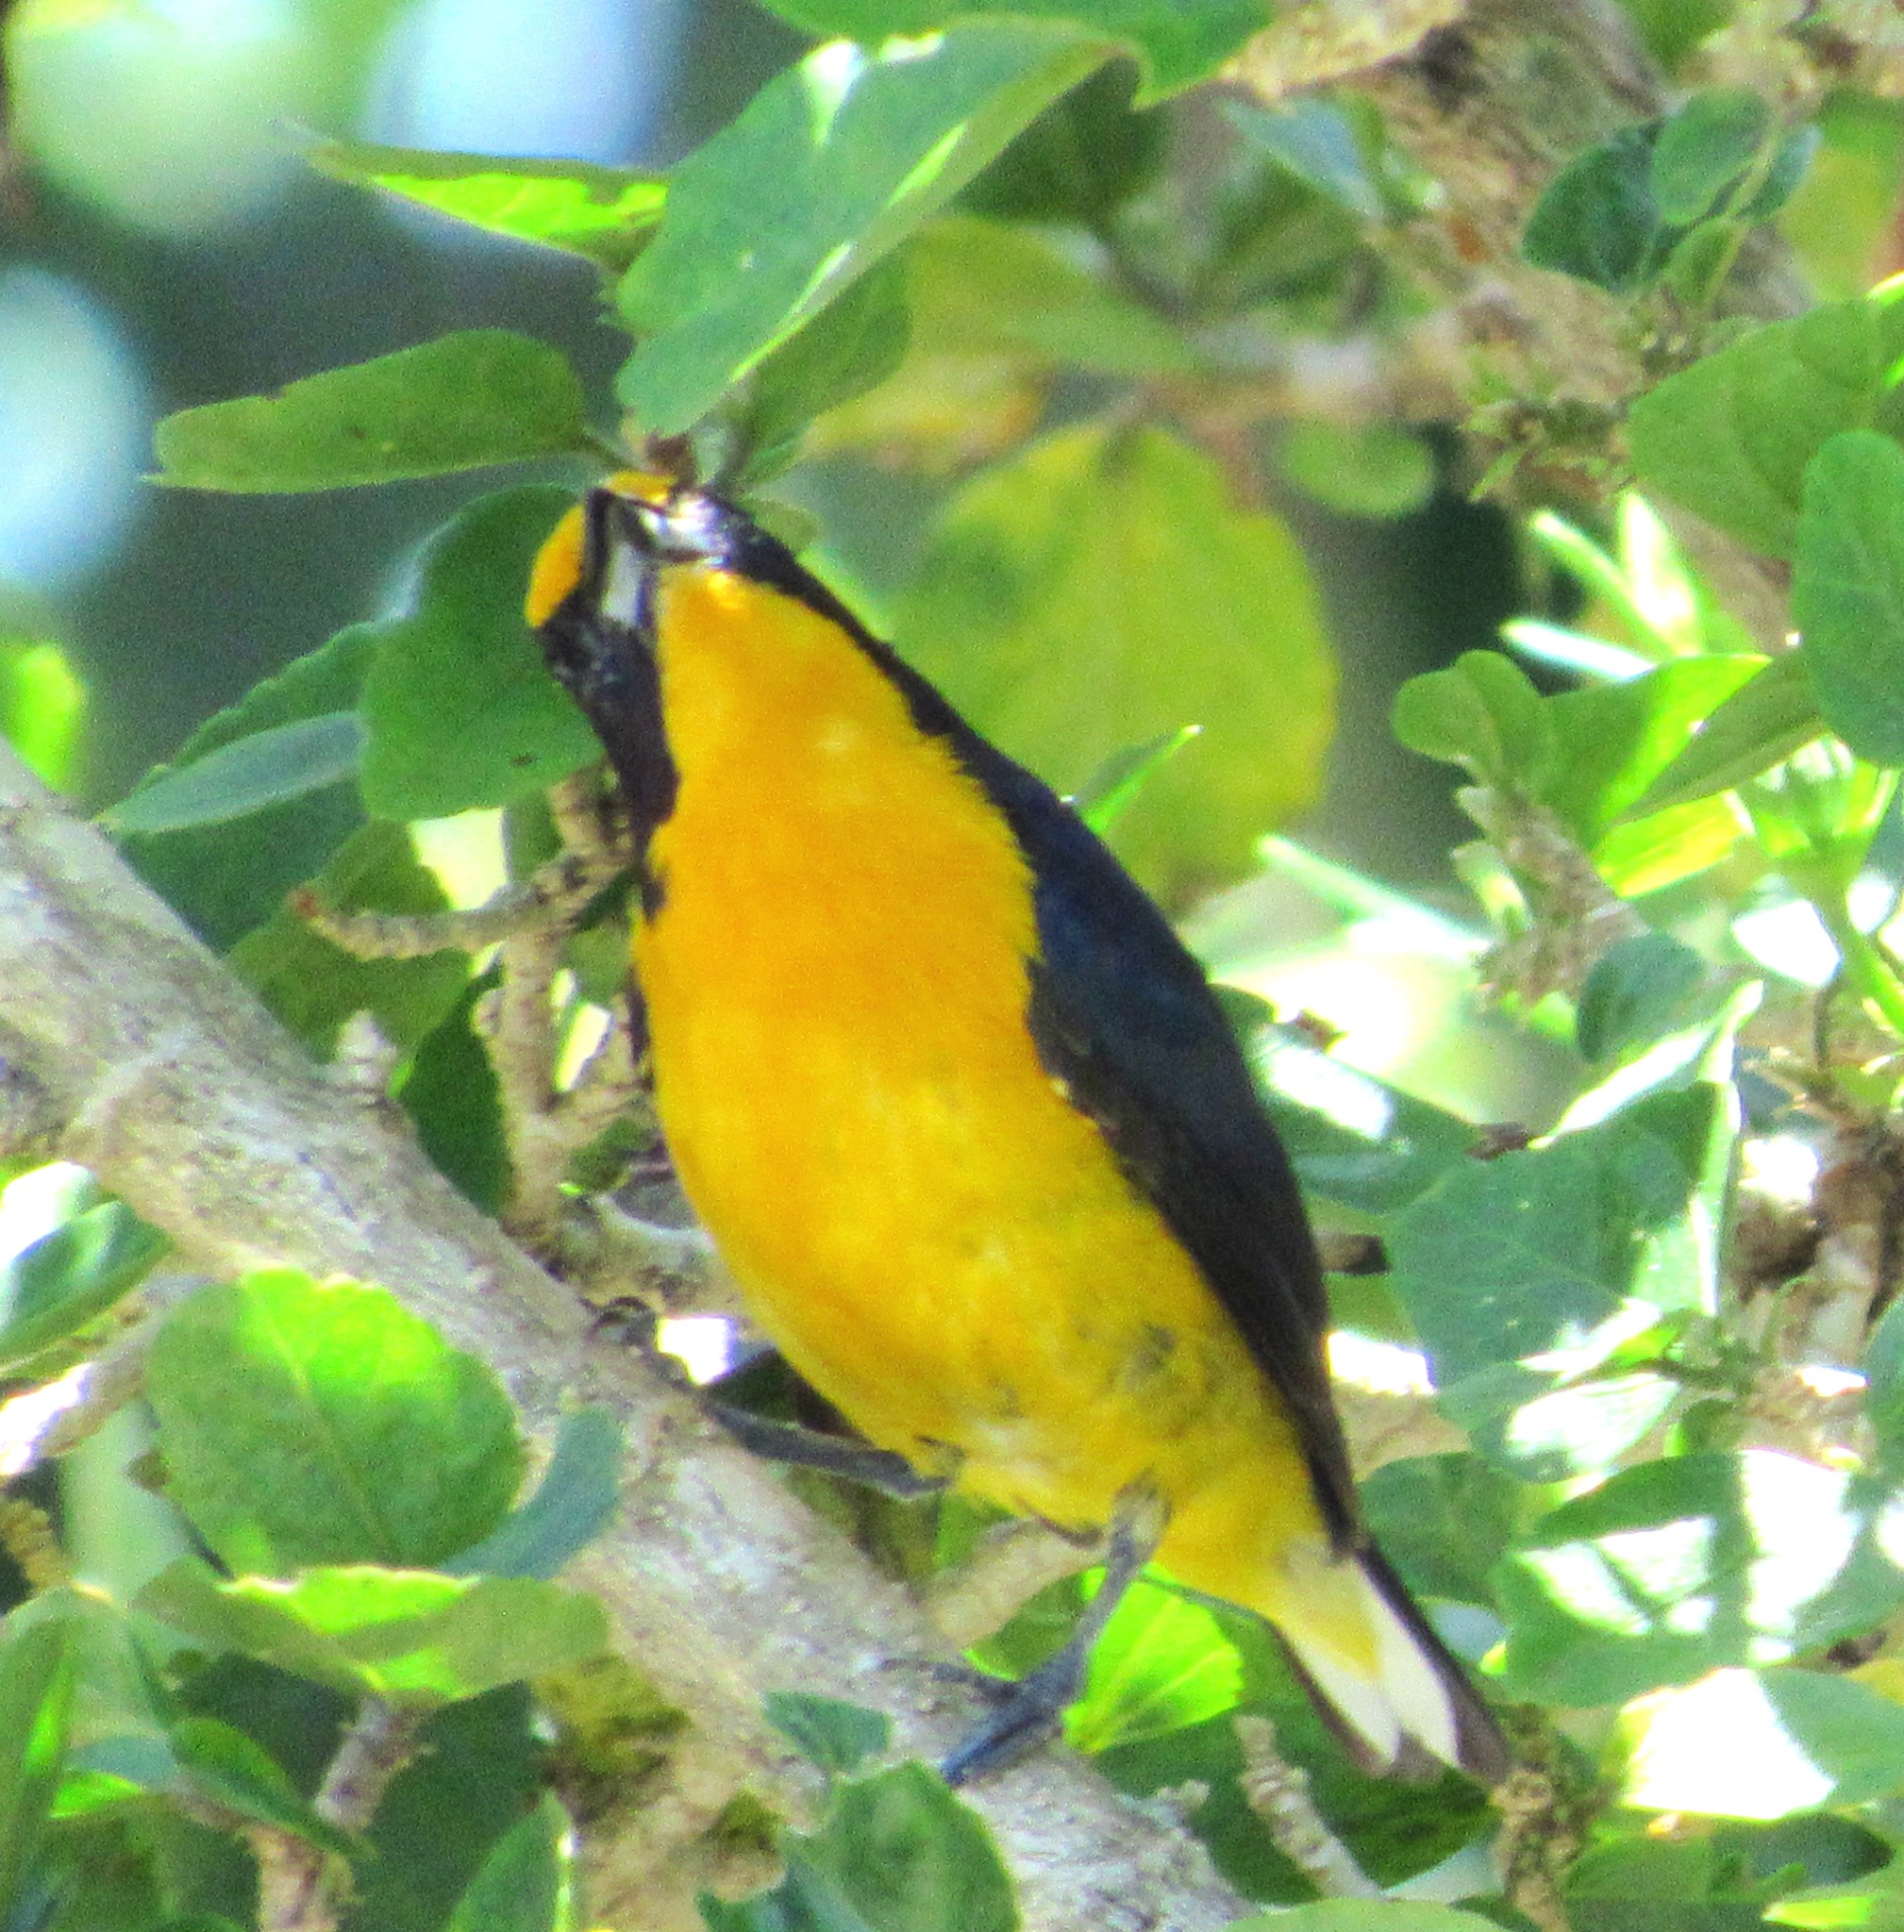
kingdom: Animalia
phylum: Chordata
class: Aves
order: Passeriformes
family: Fringillidae
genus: Euphonia
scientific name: Euphonia violacea
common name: Violaceous euphonia
